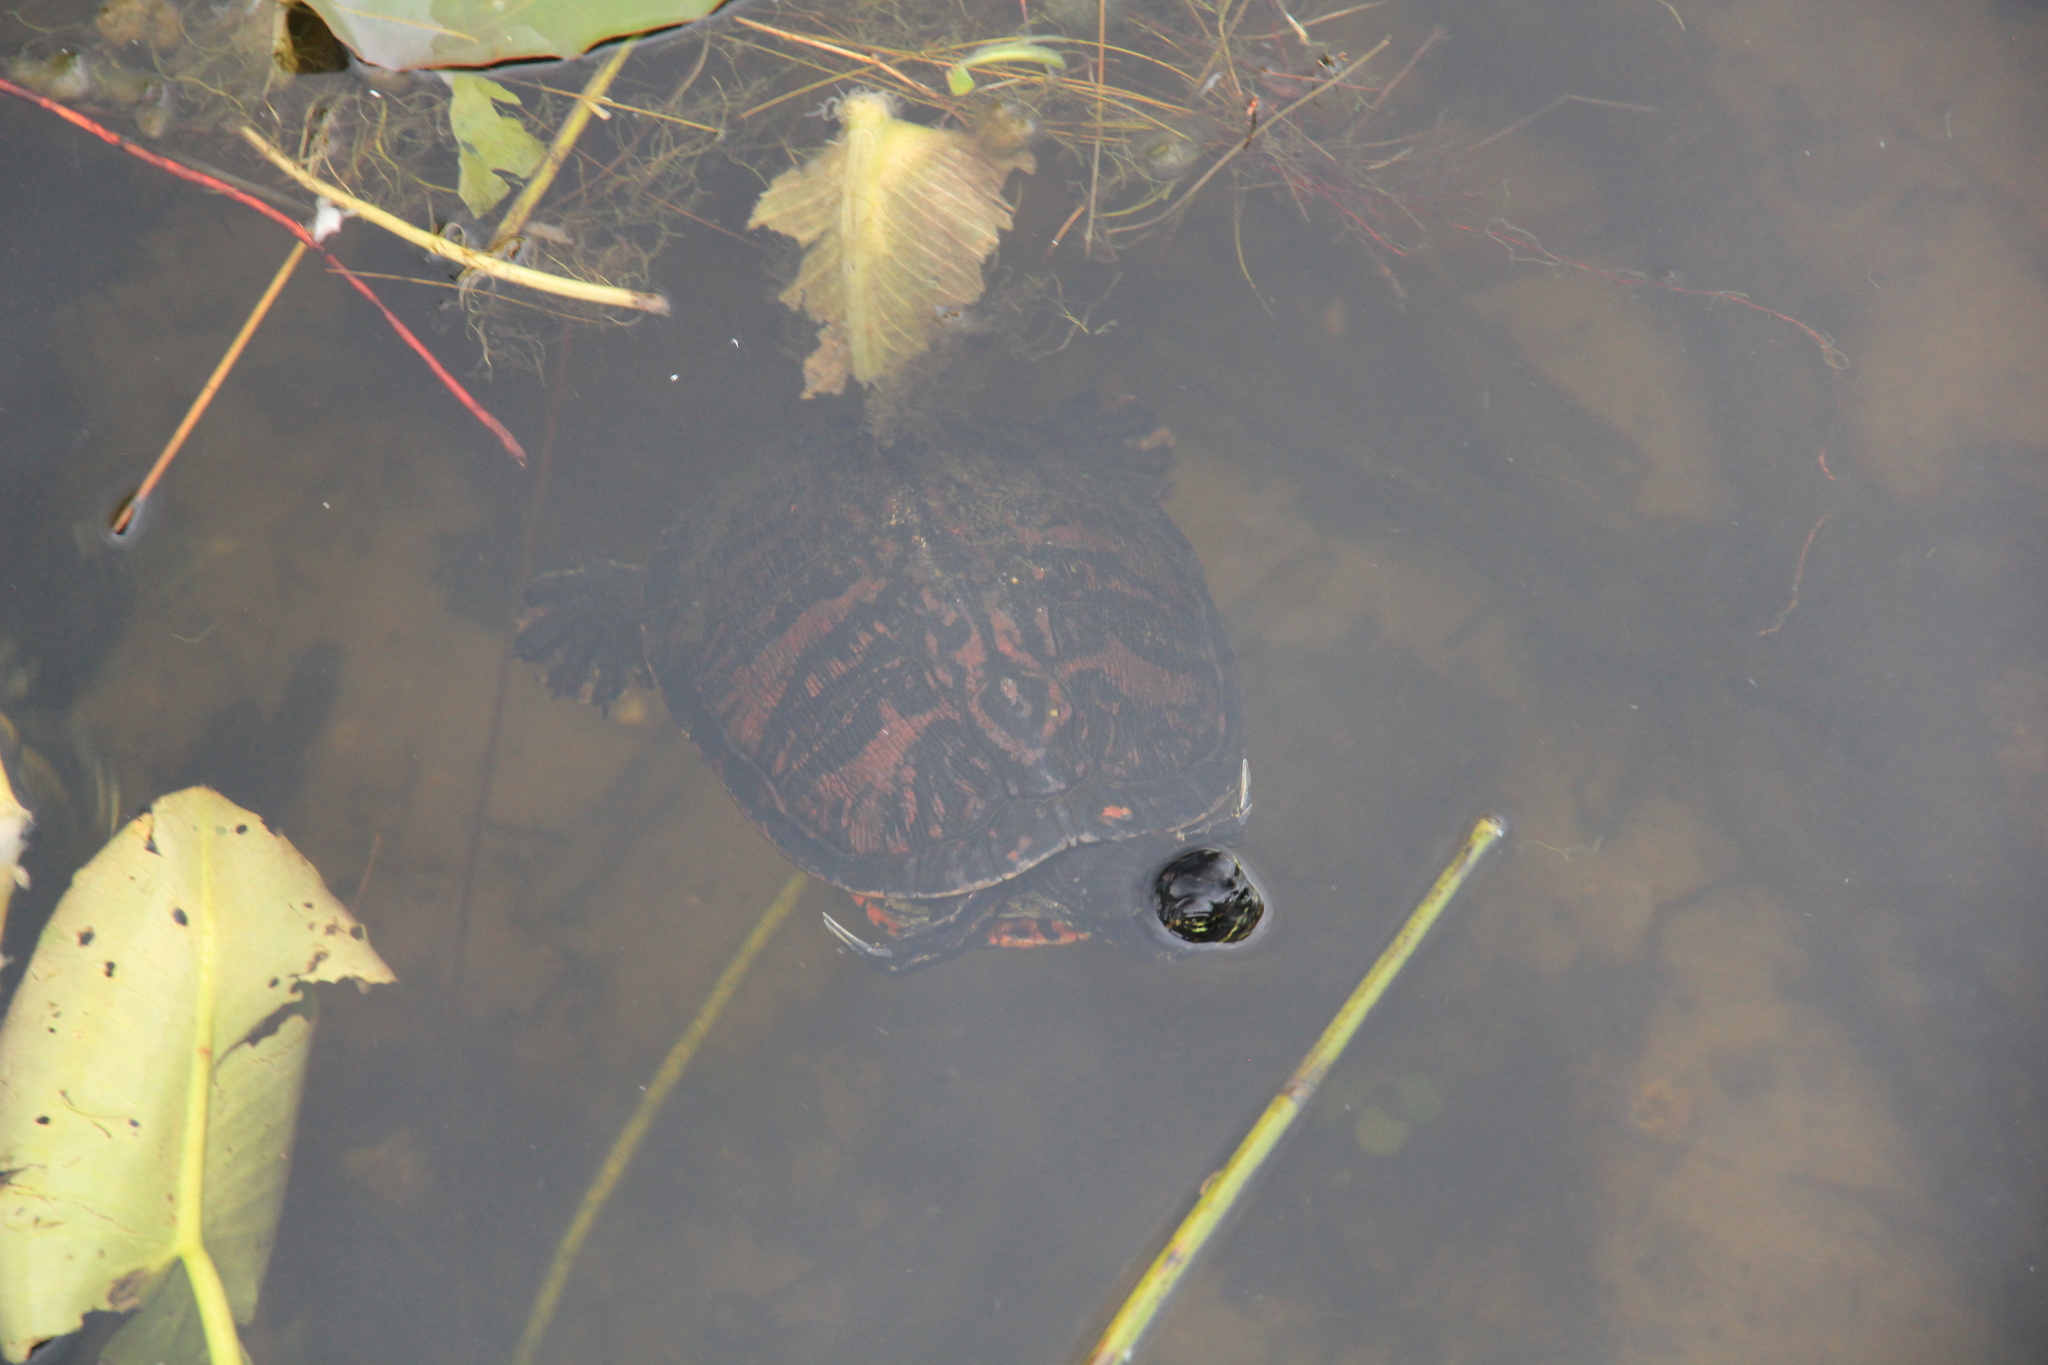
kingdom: Animalia
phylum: Chordata
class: Testudines
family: Emydidae
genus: Pseudemys
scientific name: Pseudemys nelsoni
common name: Florida red-bellied turtle
